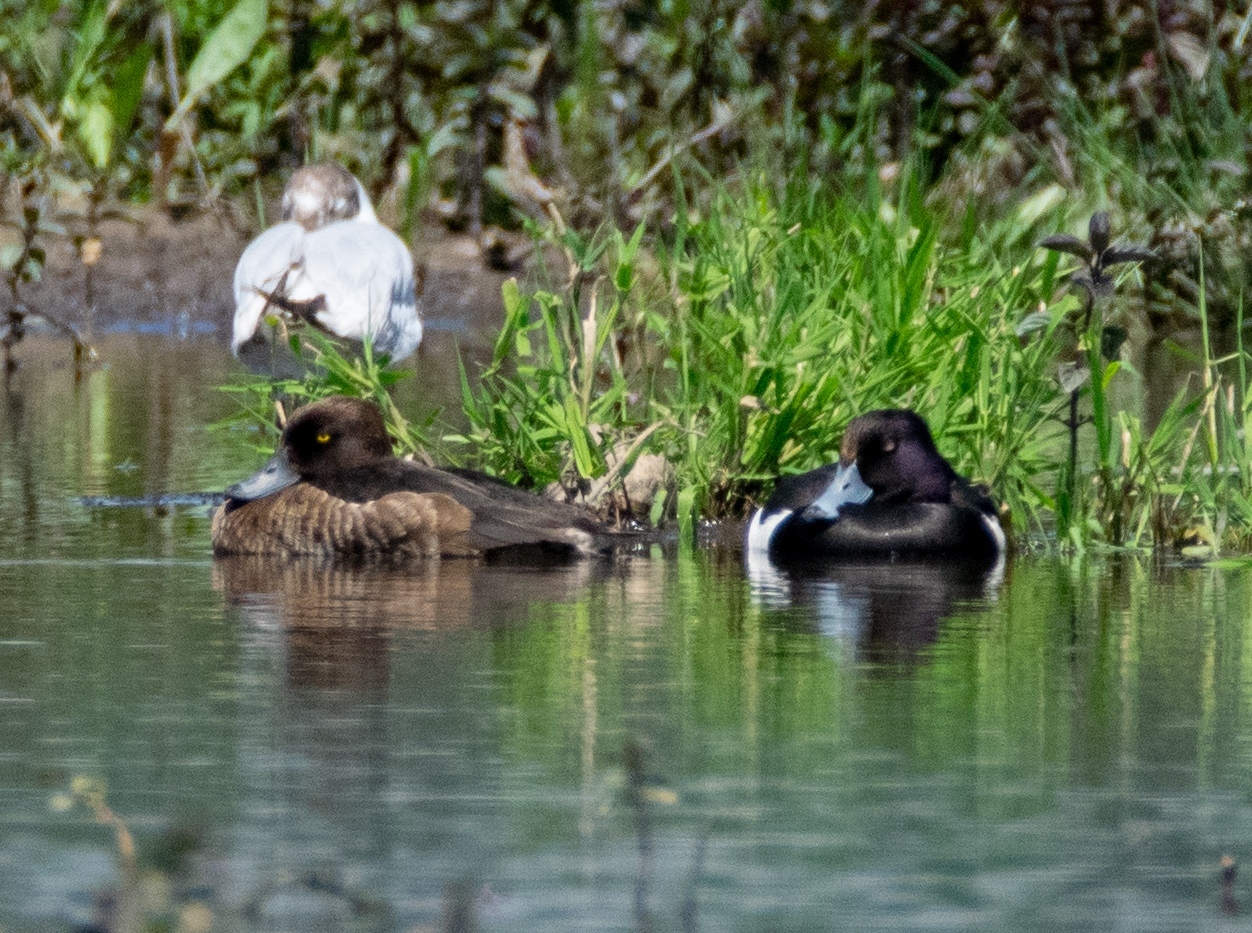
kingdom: Animalia
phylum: Chordata
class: Aves
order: Anseriformes
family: Anatidae
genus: Aythya
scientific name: Aythya fuligula
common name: Tufted duck
